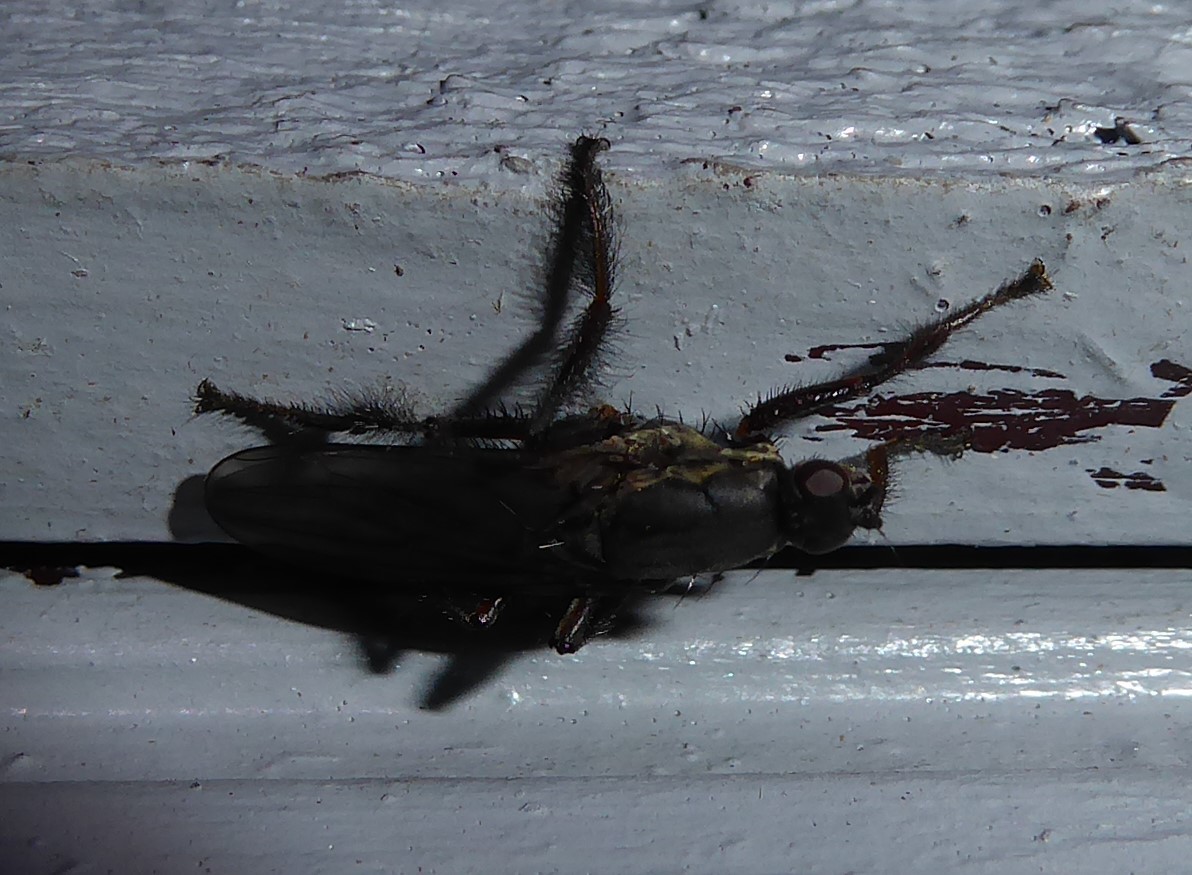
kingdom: Animalia
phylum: Arthropoda
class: Insecta
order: Diptera
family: Coelopidae
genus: Chaetocoelopa
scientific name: Chaetocoelopa littoralis
